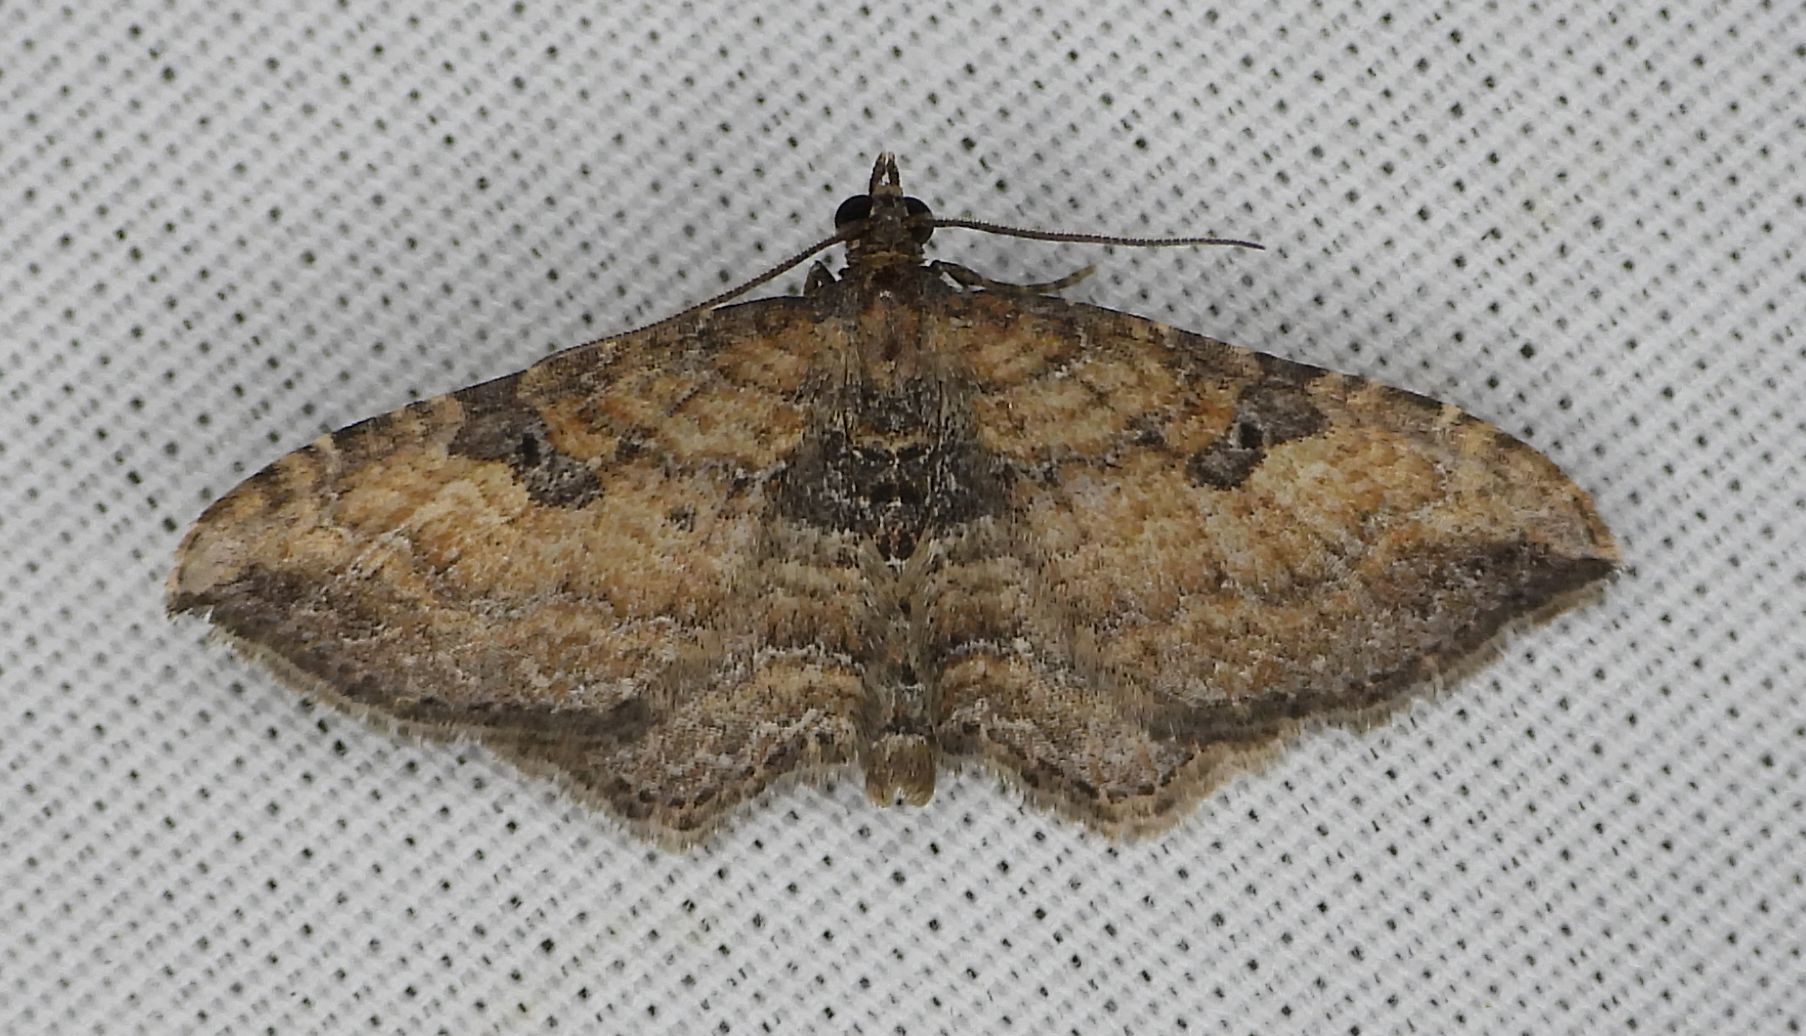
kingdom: Animalia
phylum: Arthropoda
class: Insecta
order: Lepidoptera
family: Geometridae
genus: Orthonama
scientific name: Orthonama obstipata
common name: The gem
